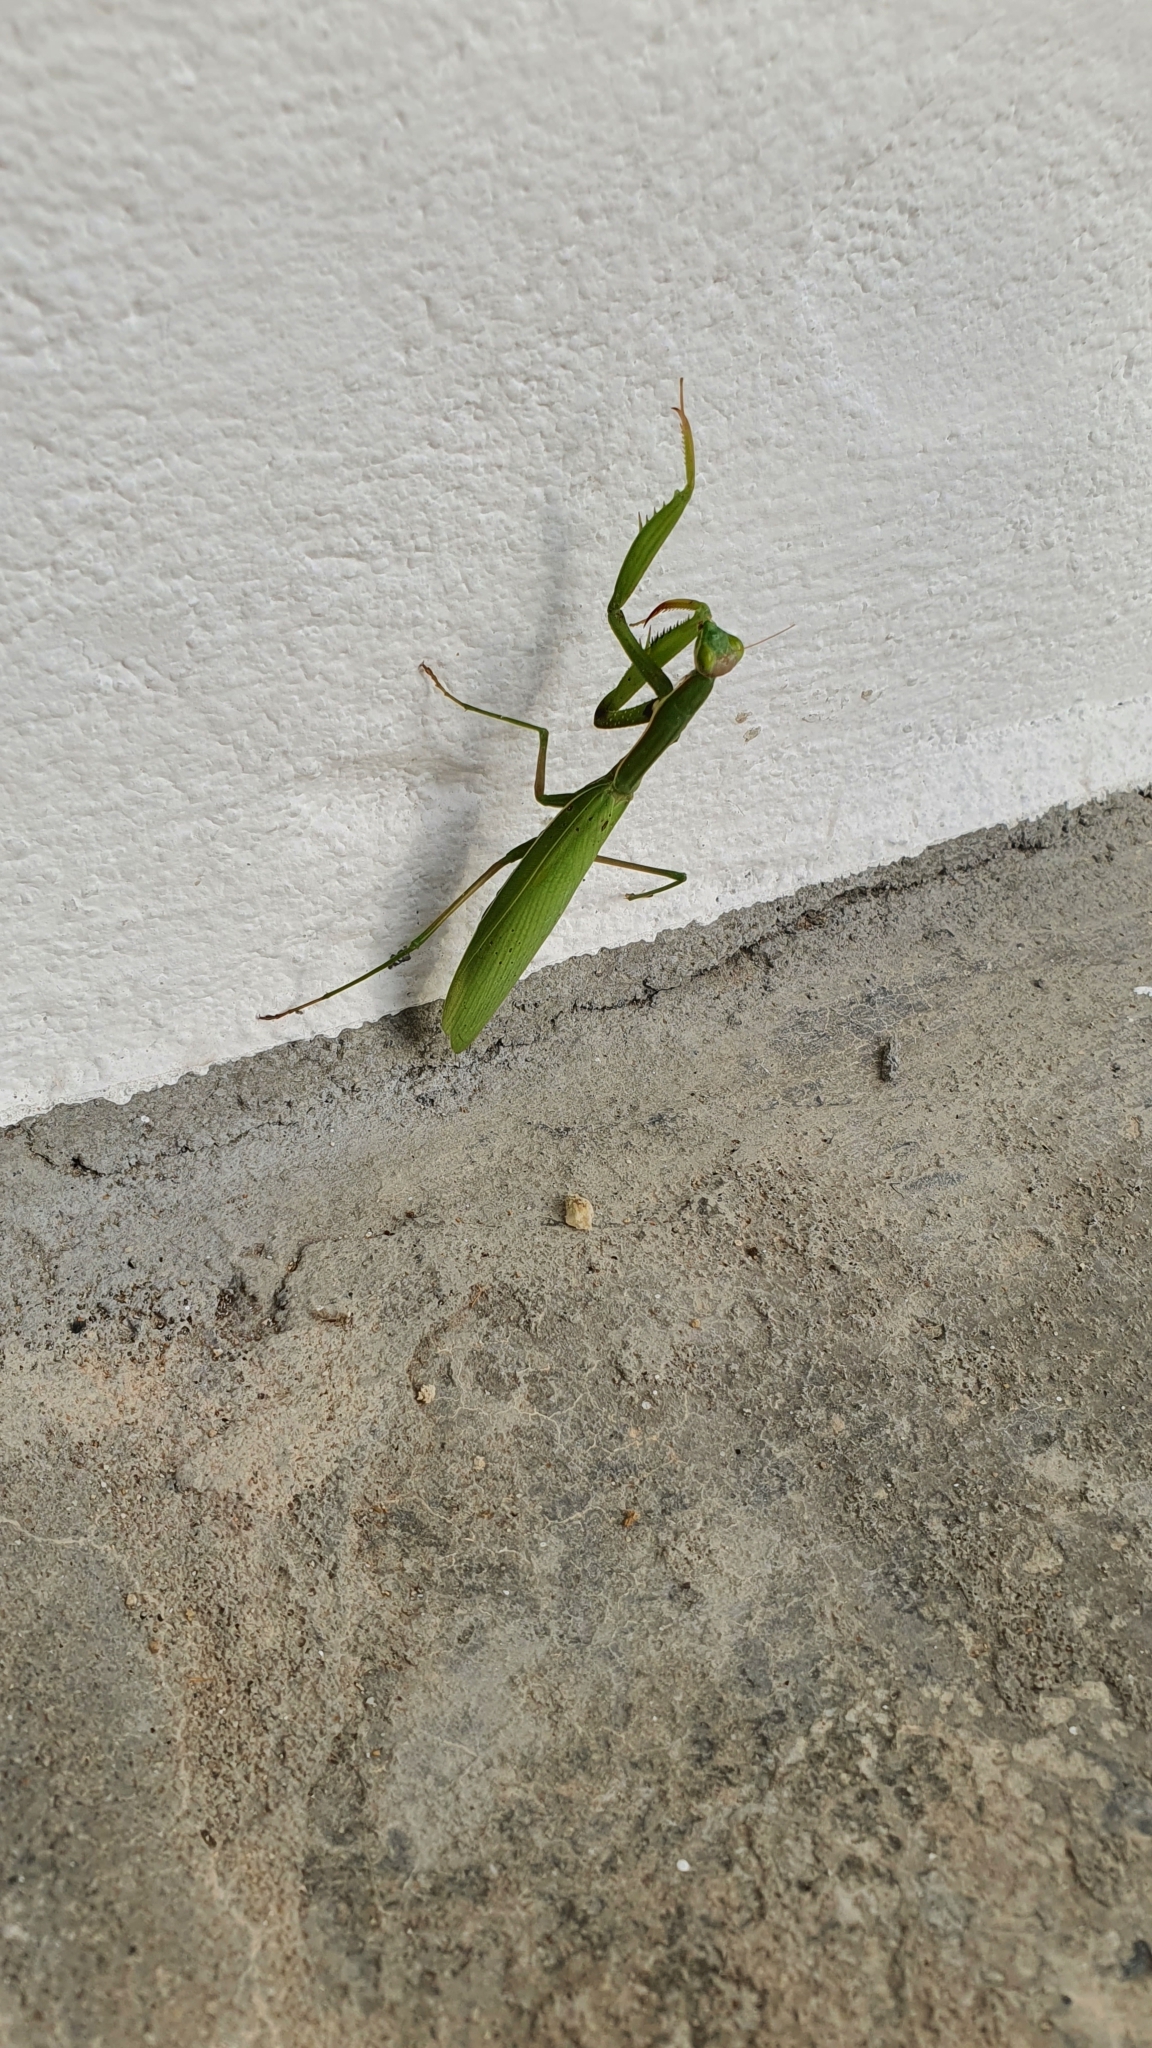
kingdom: Animalia
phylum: Arthropoda
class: Insecta
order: Mantodea
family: Mantidae
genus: Mantis
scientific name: Mantis religiosa
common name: Praying mantis
